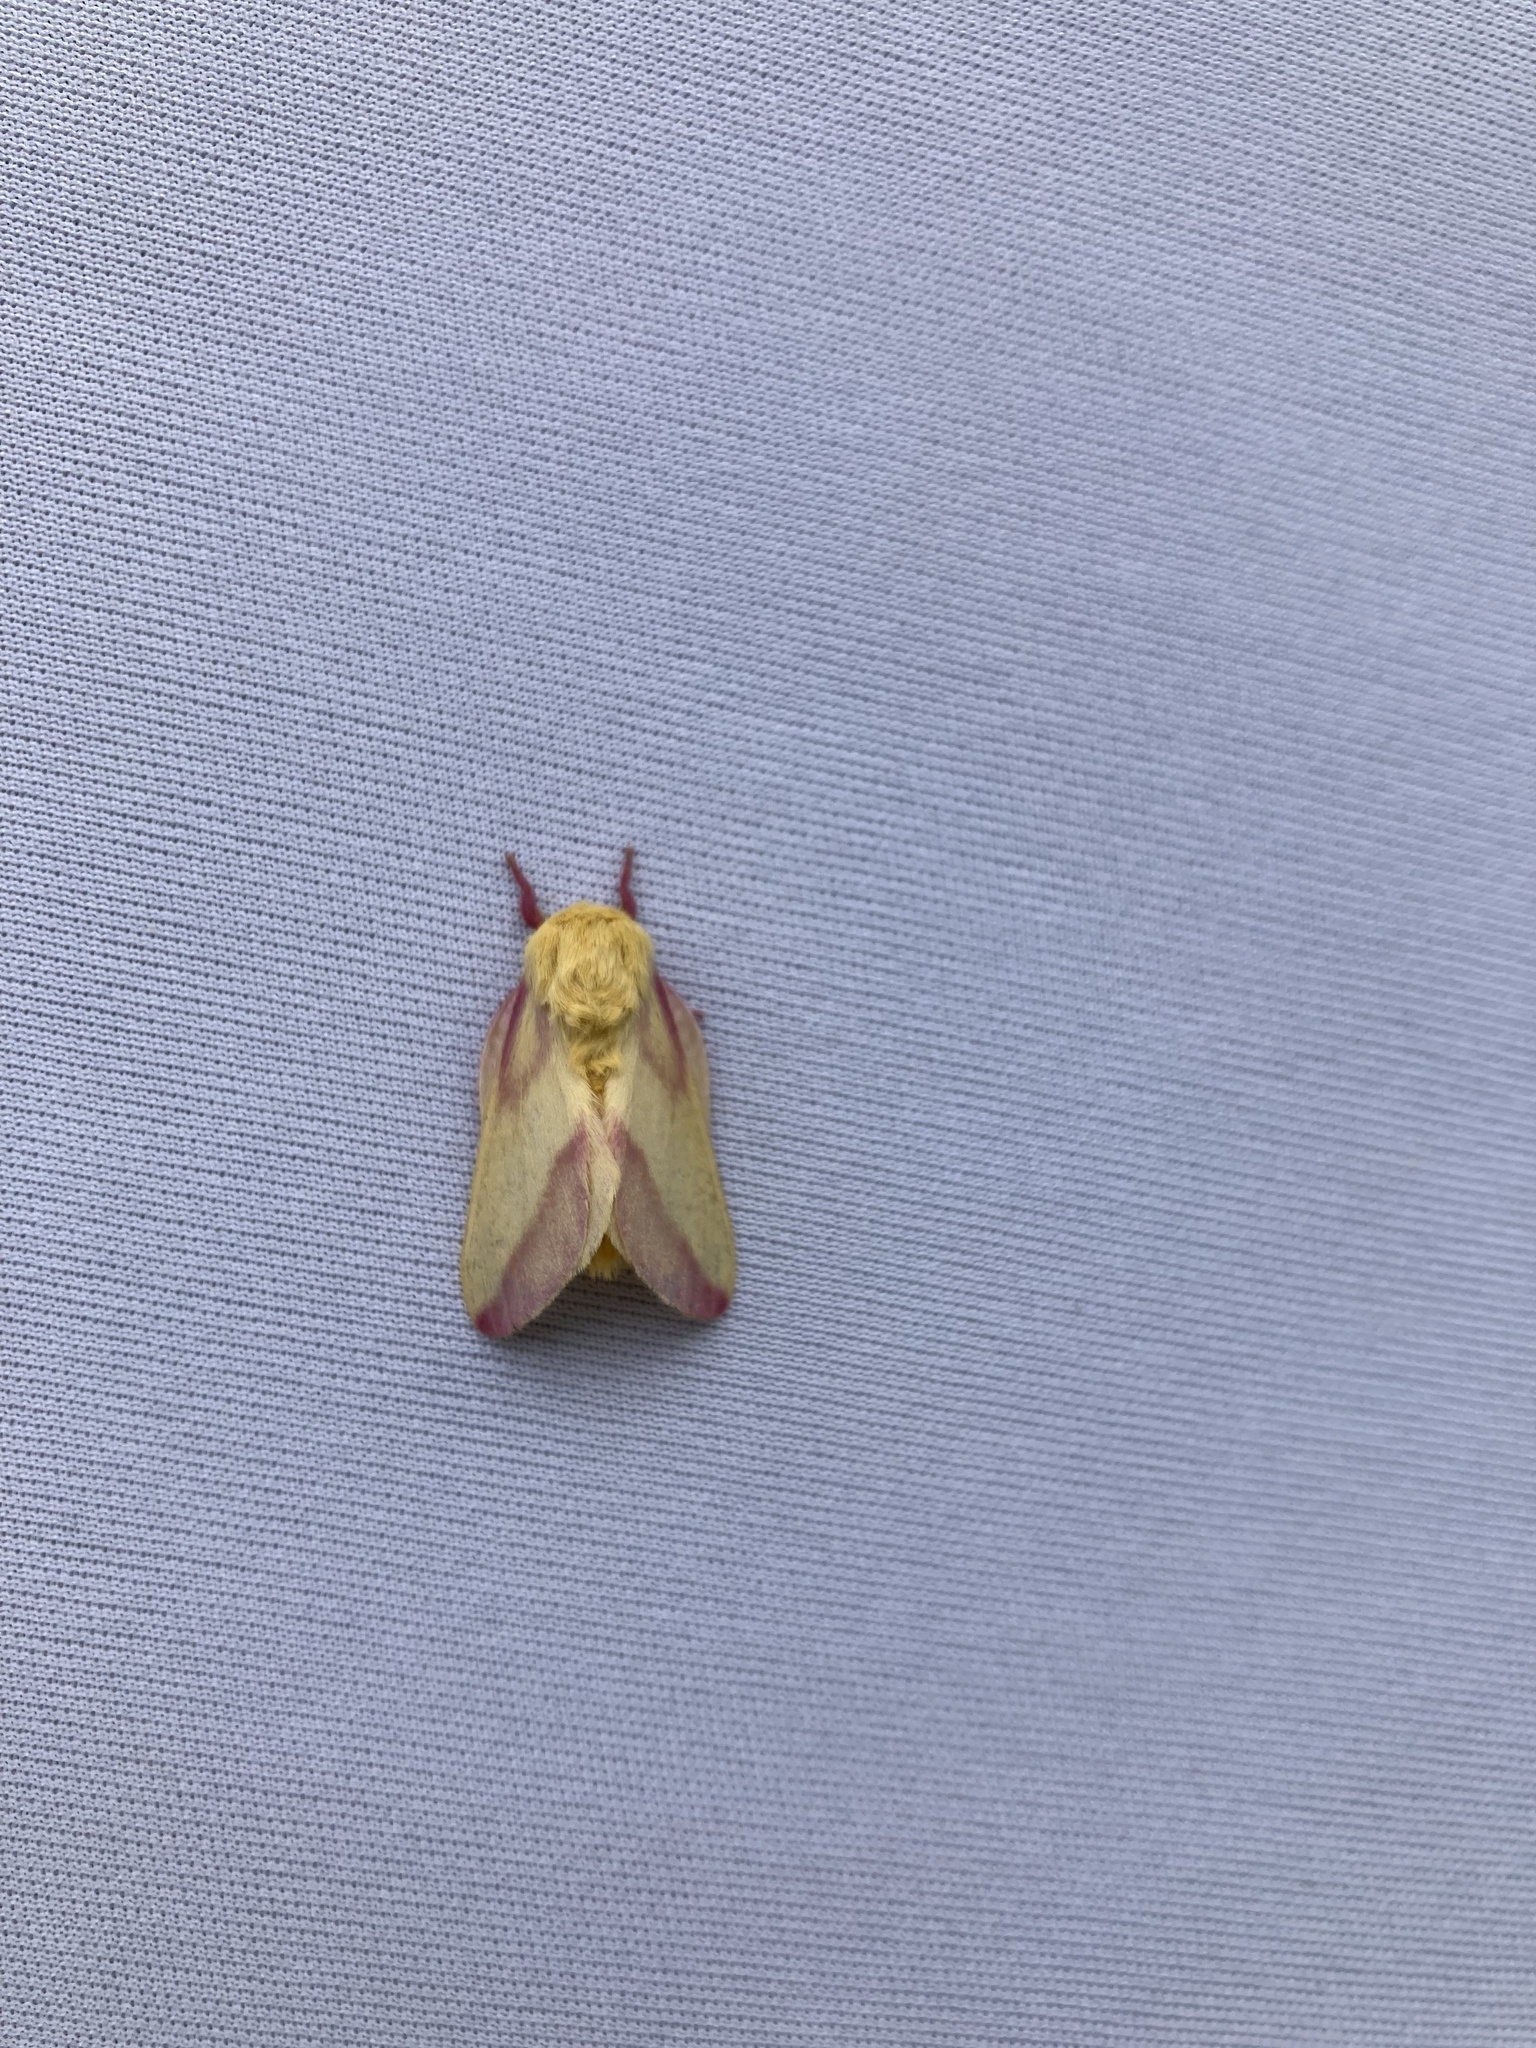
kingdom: Animalia
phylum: Arthropoda
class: Insecta
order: Lepidoptera
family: Saturniidae
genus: Dryocampa
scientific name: Dryocampa rubicunda
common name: Rosy maple moth
